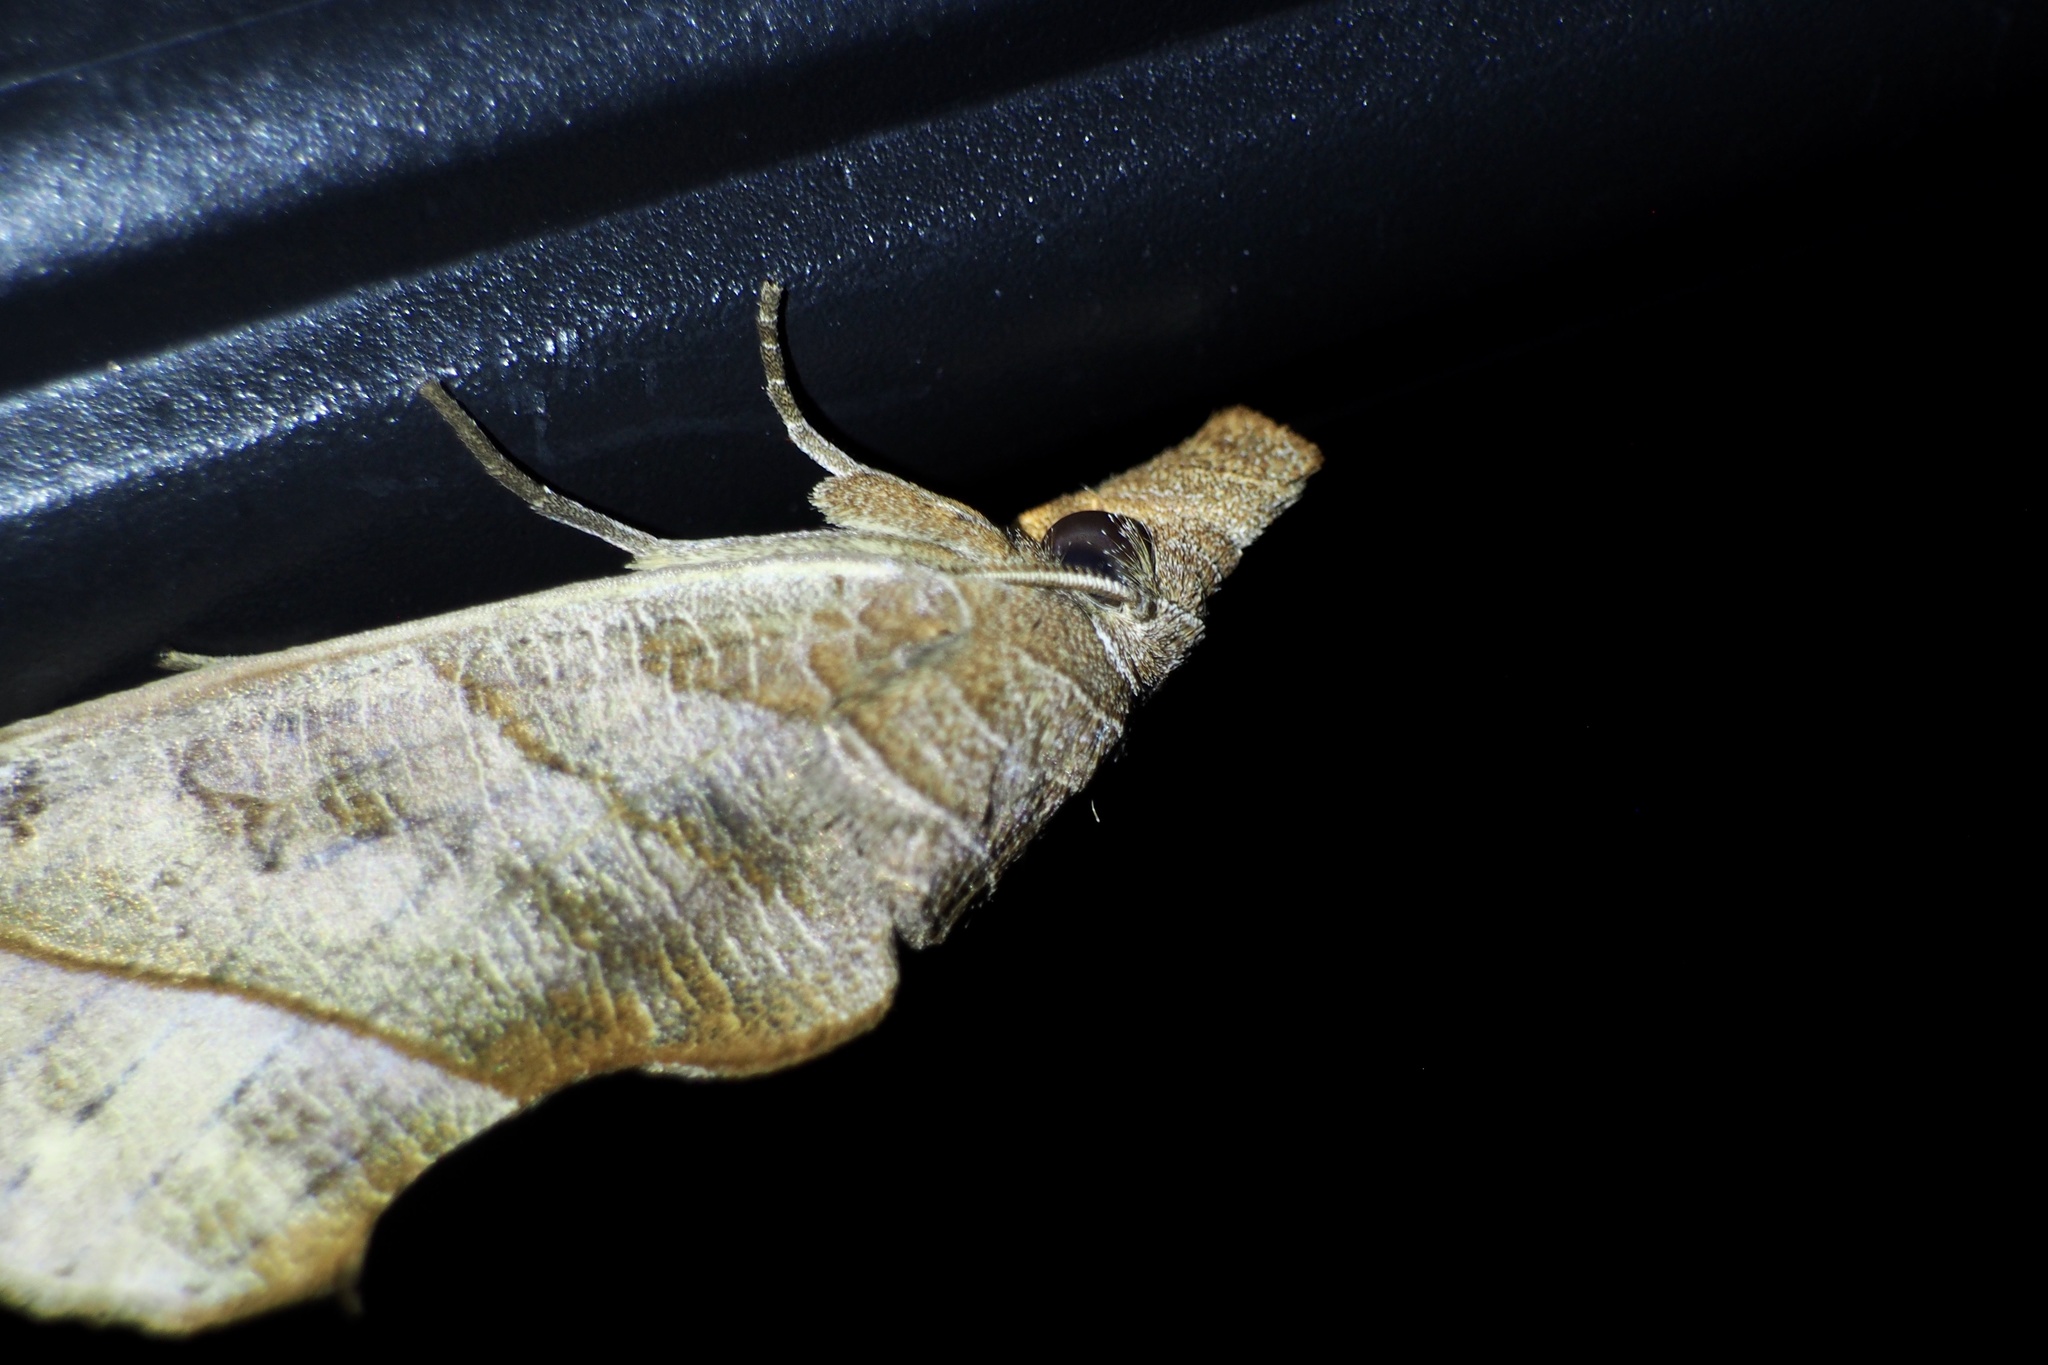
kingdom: Animalia
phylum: Arthropoda
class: Insecta
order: Lepidoptera
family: Erebidae
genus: Calyptra
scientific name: Calyptra gruesa
